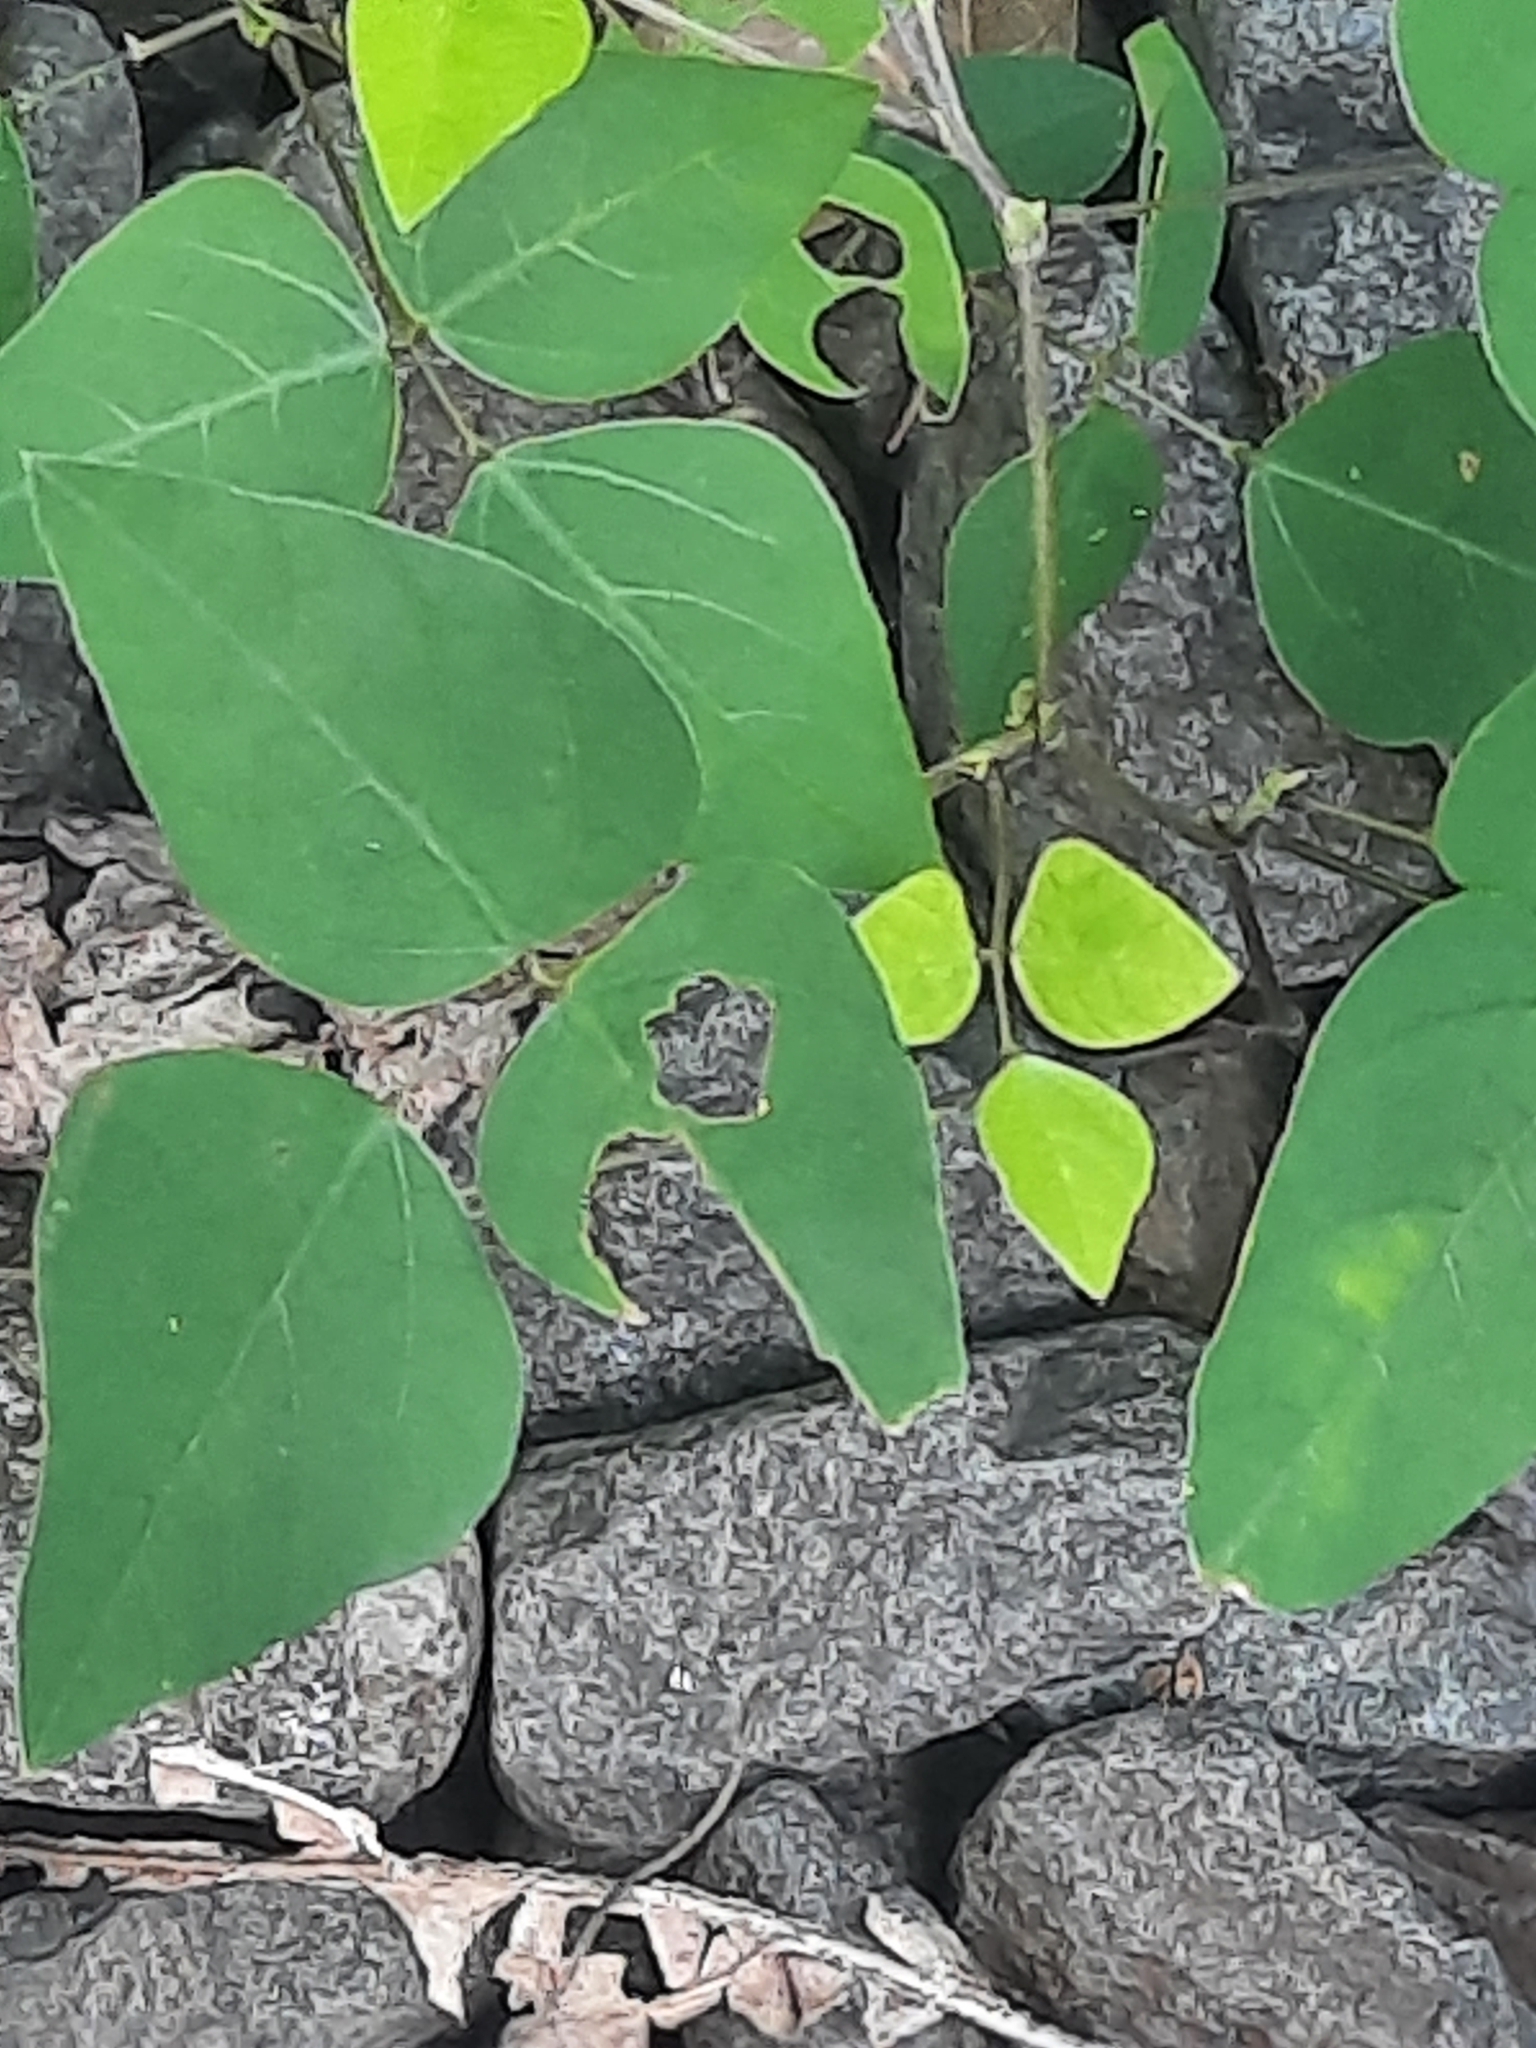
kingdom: Plantae
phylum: Tracheophyta
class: Magnoliopsida
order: Fabales
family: Fabaceae
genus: Amphicarpaea
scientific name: Amphicarpaea bracteata
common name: American hog peanut
